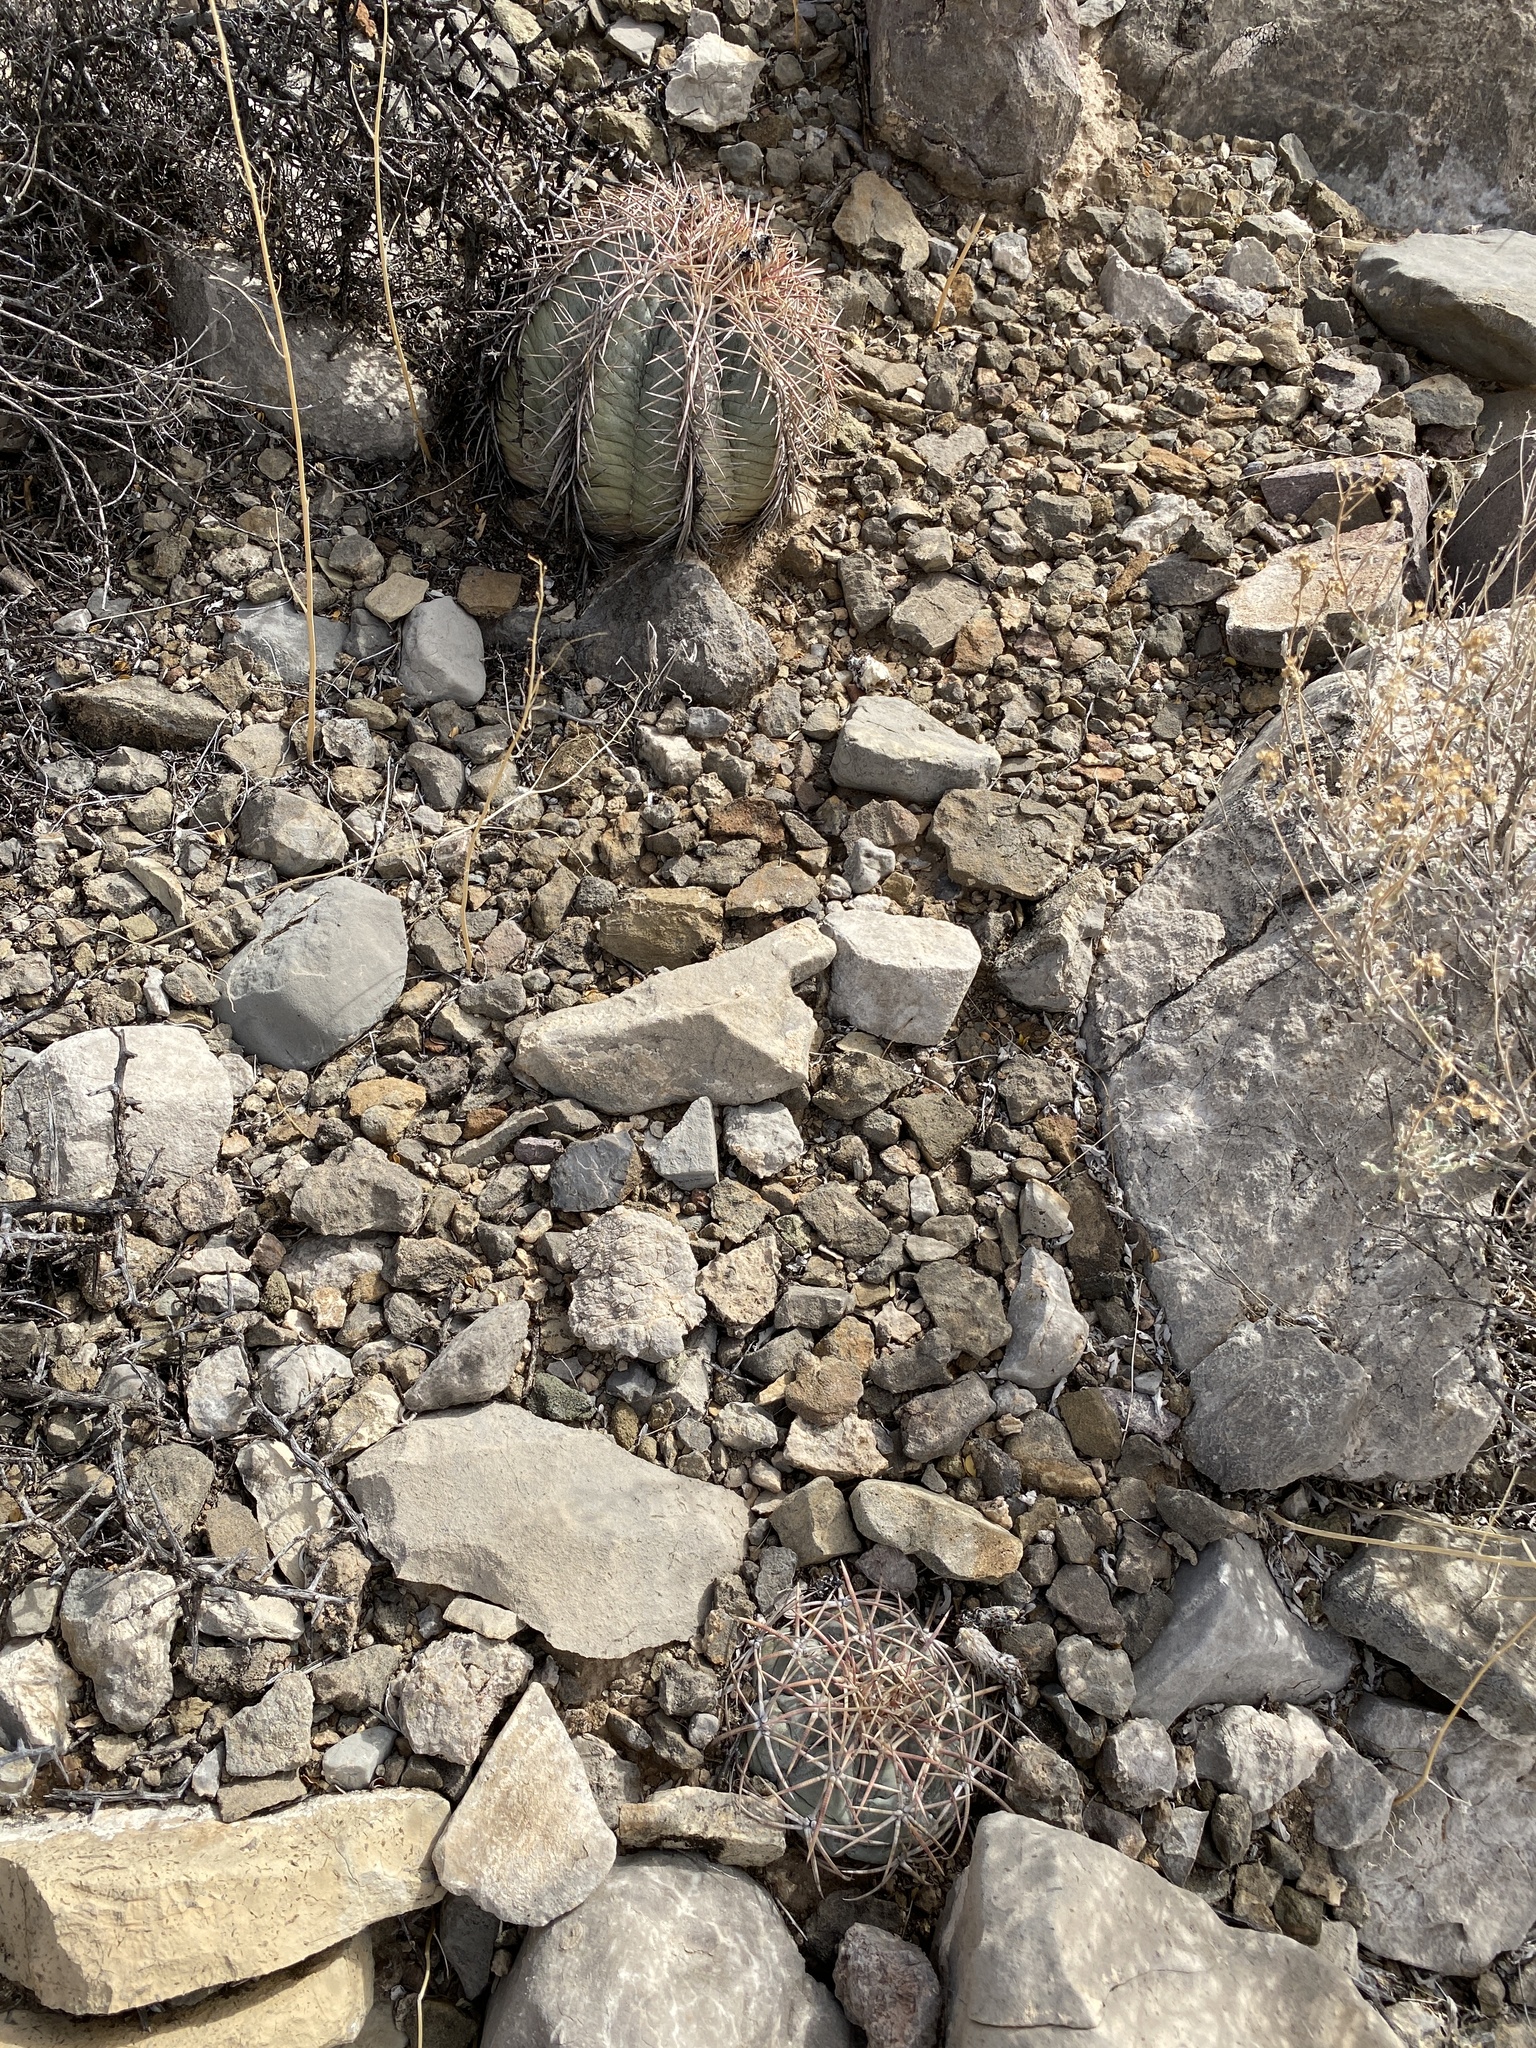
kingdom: Plantae
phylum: Tracheophyta
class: Magnoliopsida
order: Caryophyllales
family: Cactaceae
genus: Echinocactus
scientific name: Echinocactus horizonthalonius
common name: Devilshead
